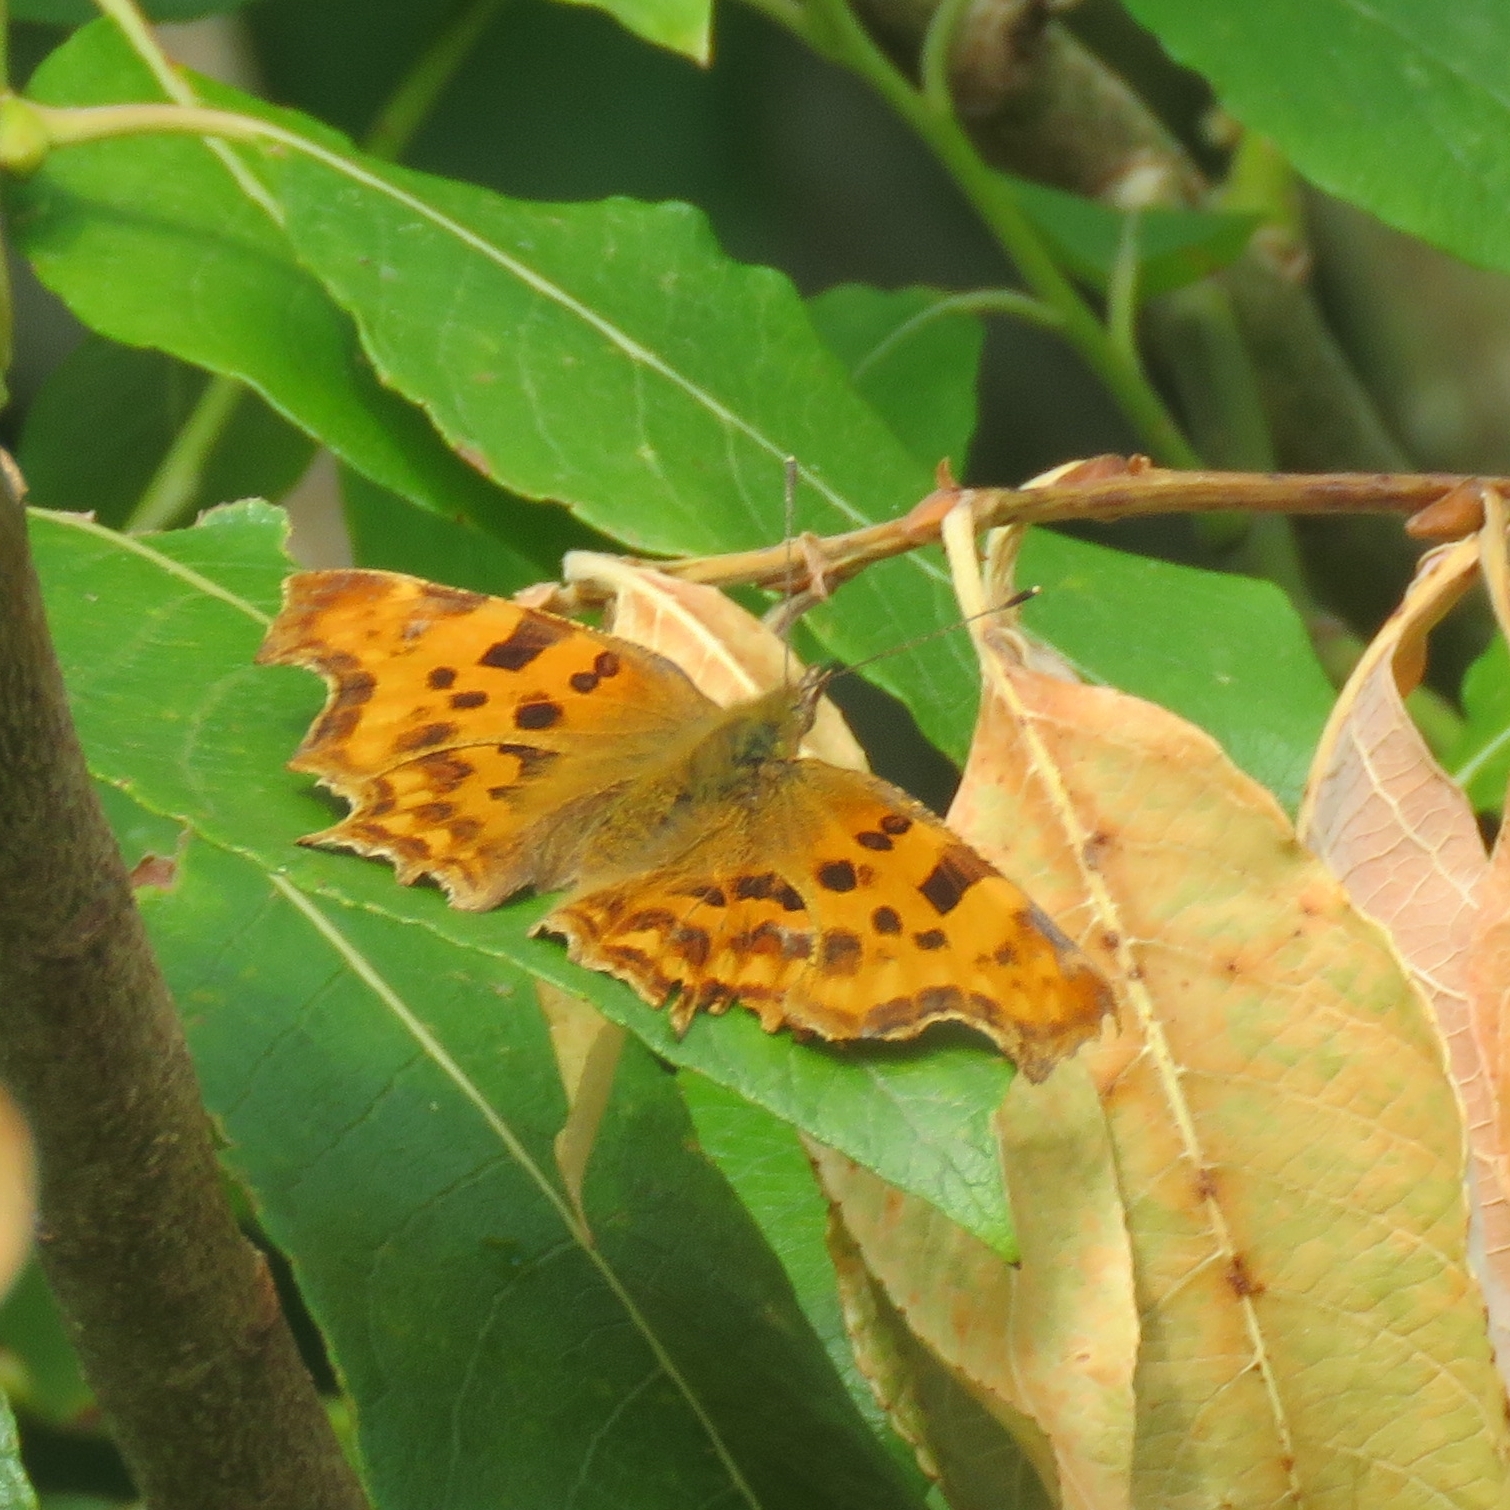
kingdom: Animalia
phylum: Arthropoda
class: Insecta
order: Lepidoptera
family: Nymphalidae
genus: Polygonia
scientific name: Polygonia c-album
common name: Comma
